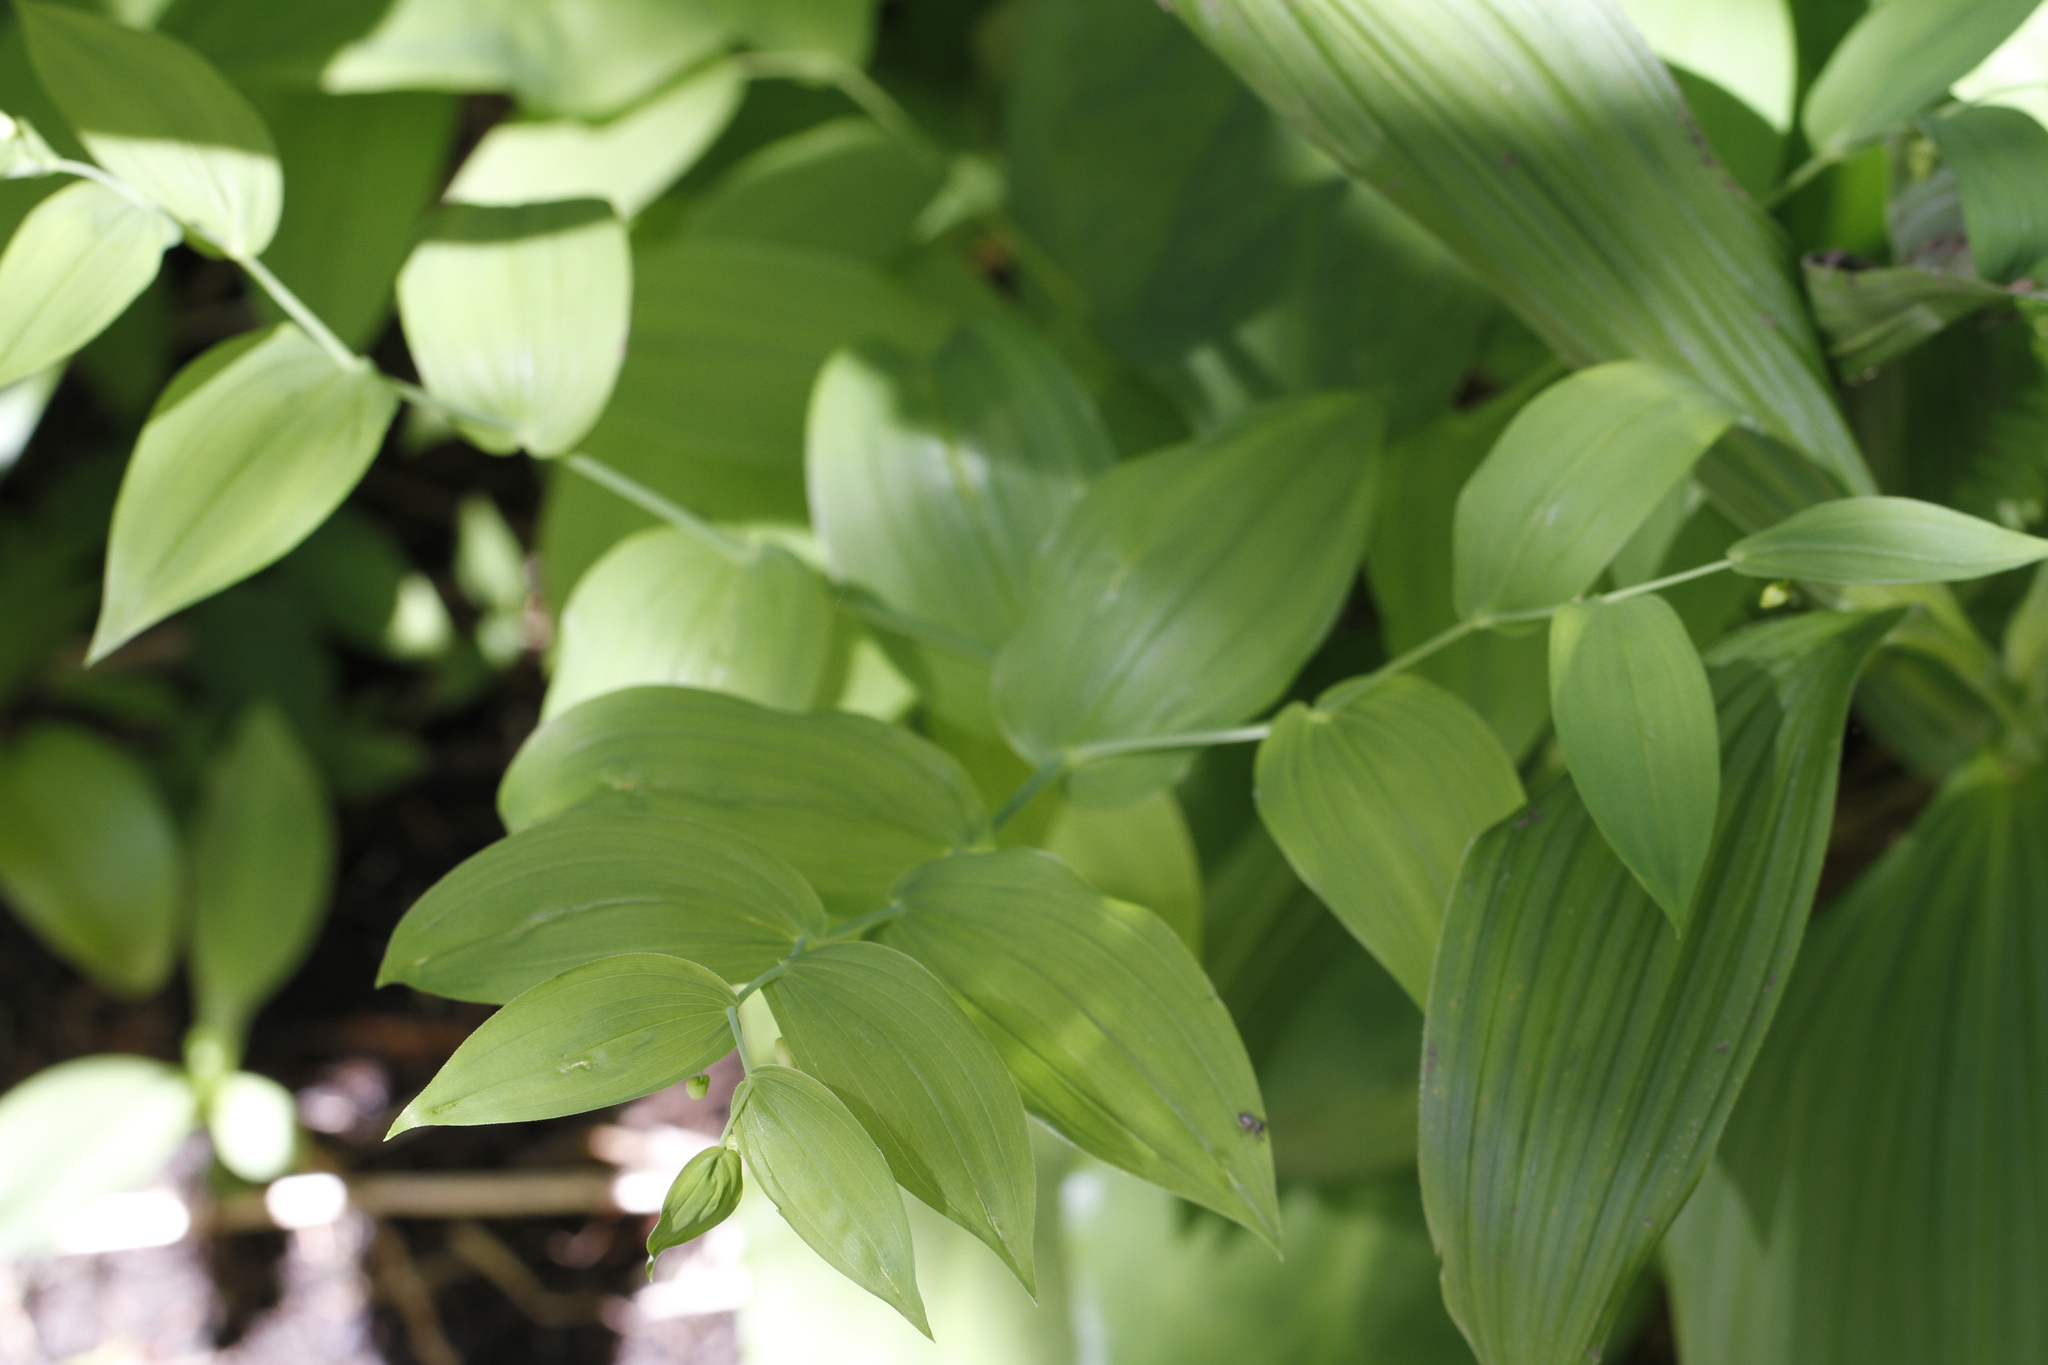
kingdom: Plantae
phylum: Tracheophyta
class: Liliopsida
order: Liliales
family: Liliaceae
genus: Streptopus
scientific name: Streptopus amplexifolius
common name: Clasp twisted stalk
